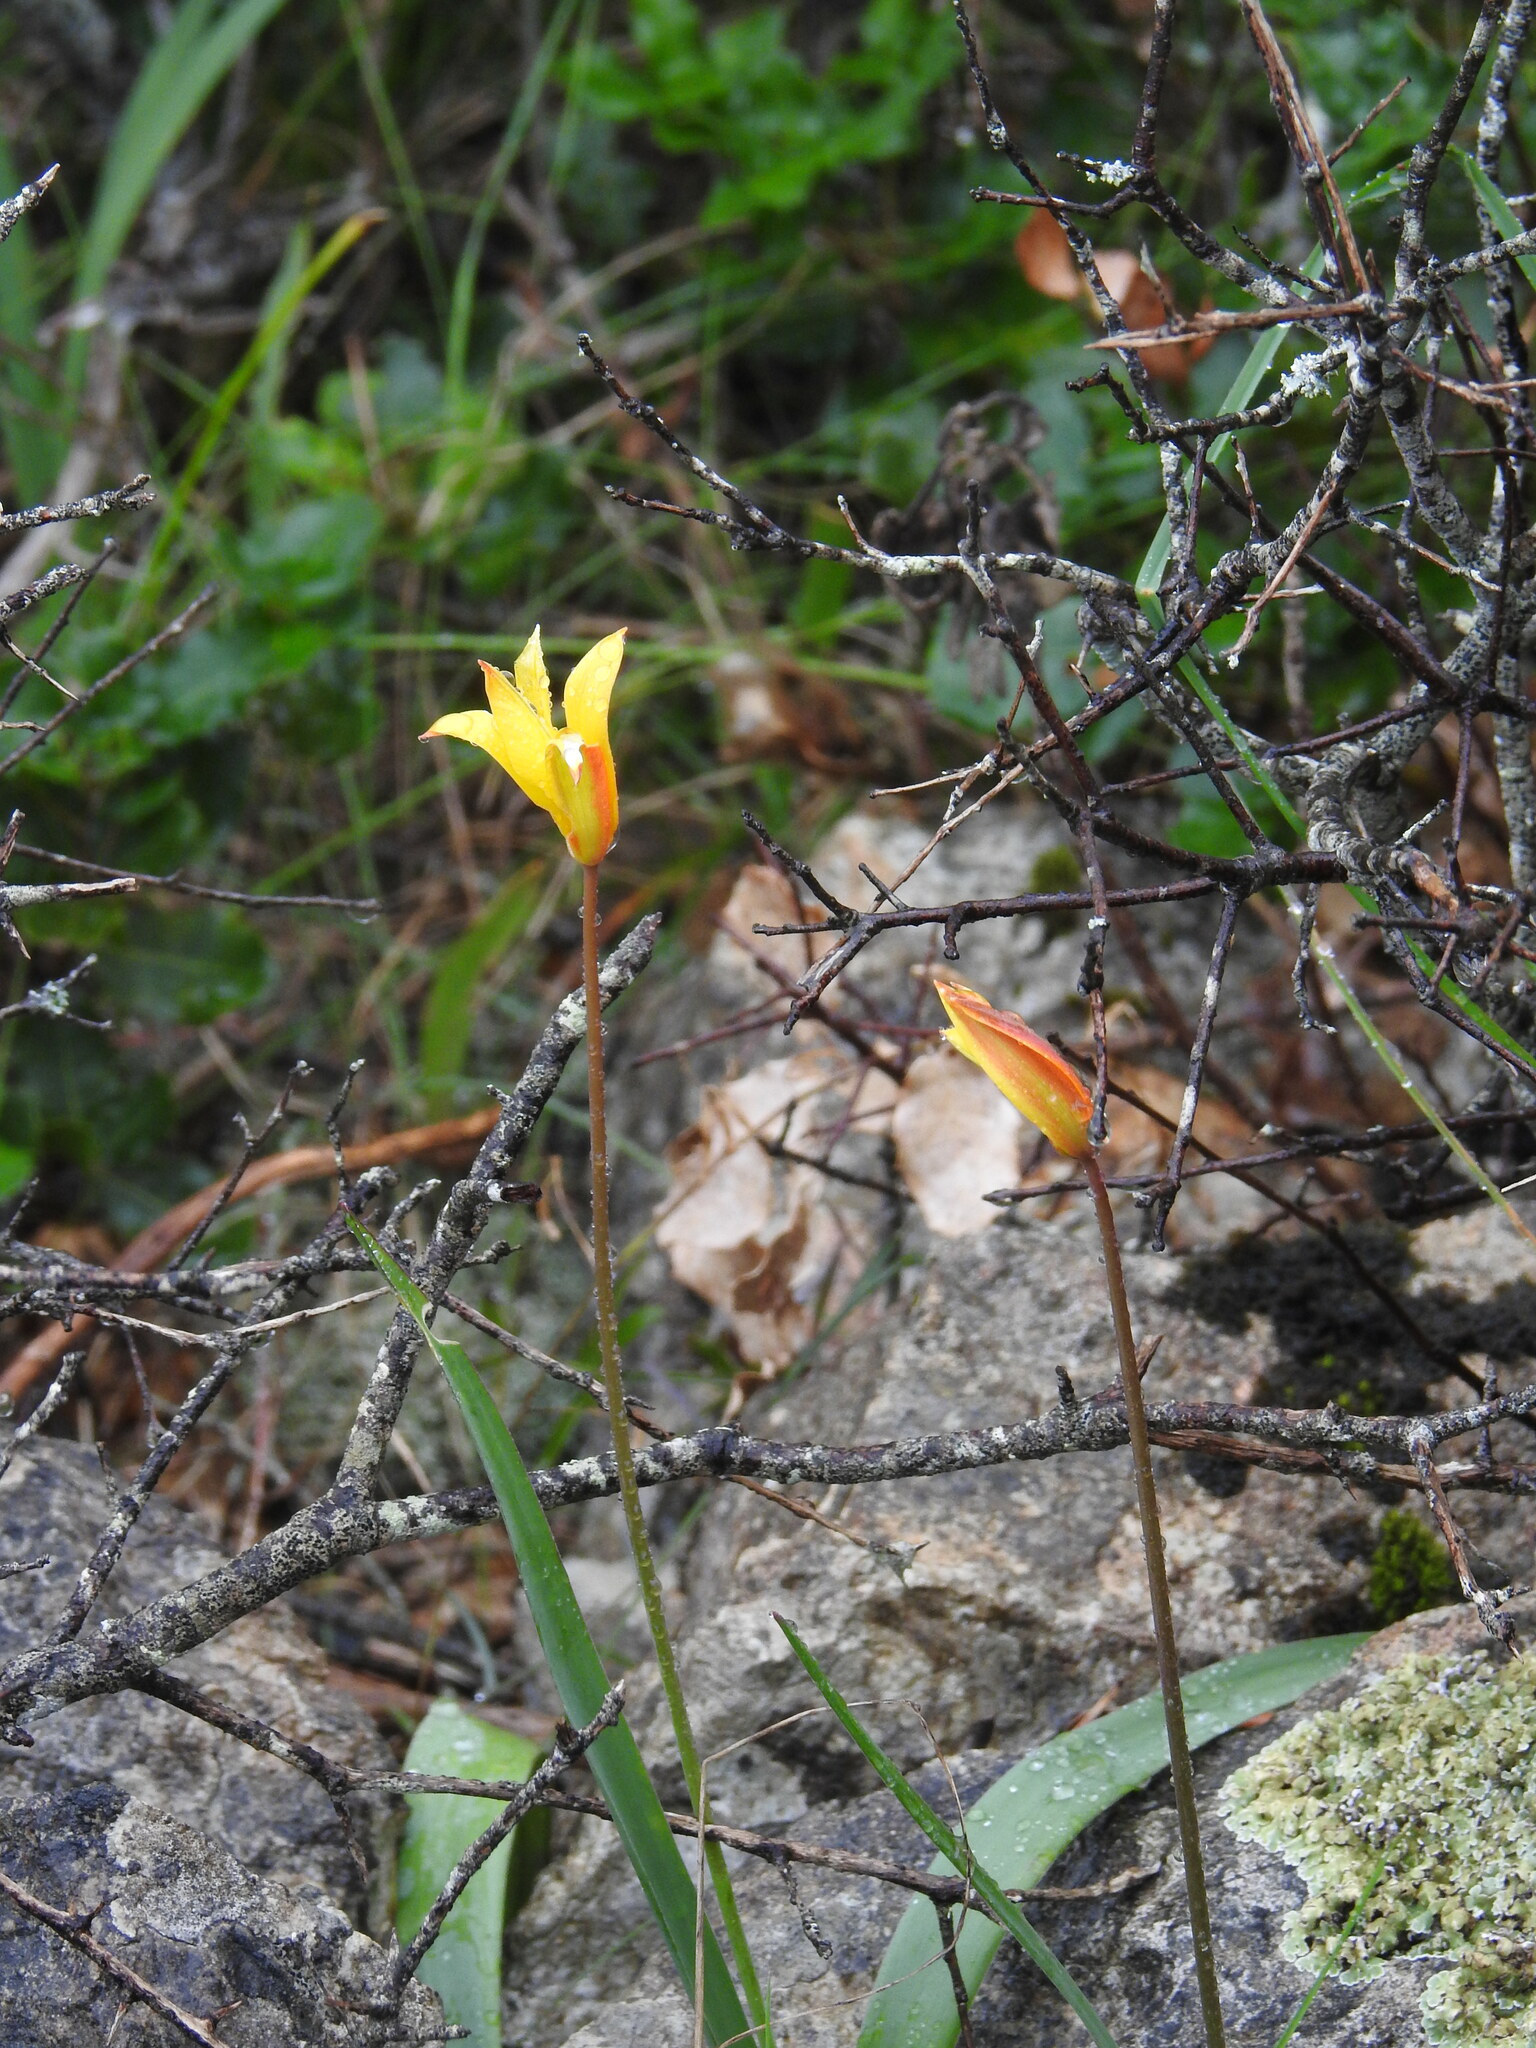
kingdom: Plantae
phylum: Tracheophyta
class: Liliopsida
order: Liliales
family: Liliaceae
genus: Tulipa
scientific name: Tulipa sylvestris
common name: Wild tulip
